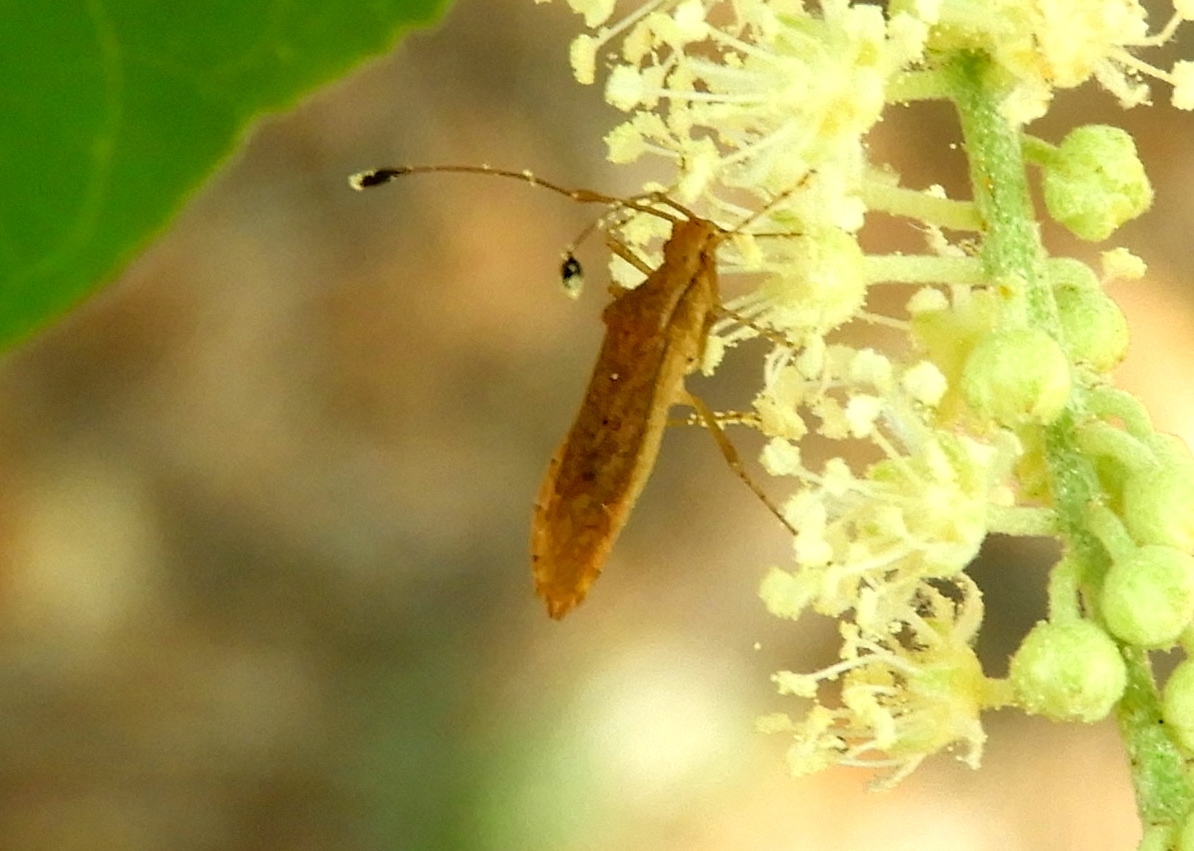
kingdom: Animalia
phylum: Arthropoda
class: Insecta
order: Hemiptera
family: Coreidae
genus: Madura
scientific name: Madura
